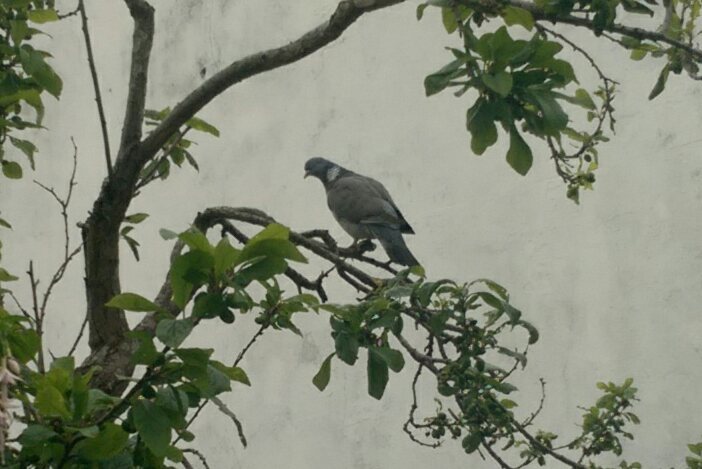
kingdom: Animalia
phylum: Chordata
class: Aves
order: Columbiformes
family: Columbidae
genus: Columba
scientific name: Columba palumbus
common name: Common wood pigeon
